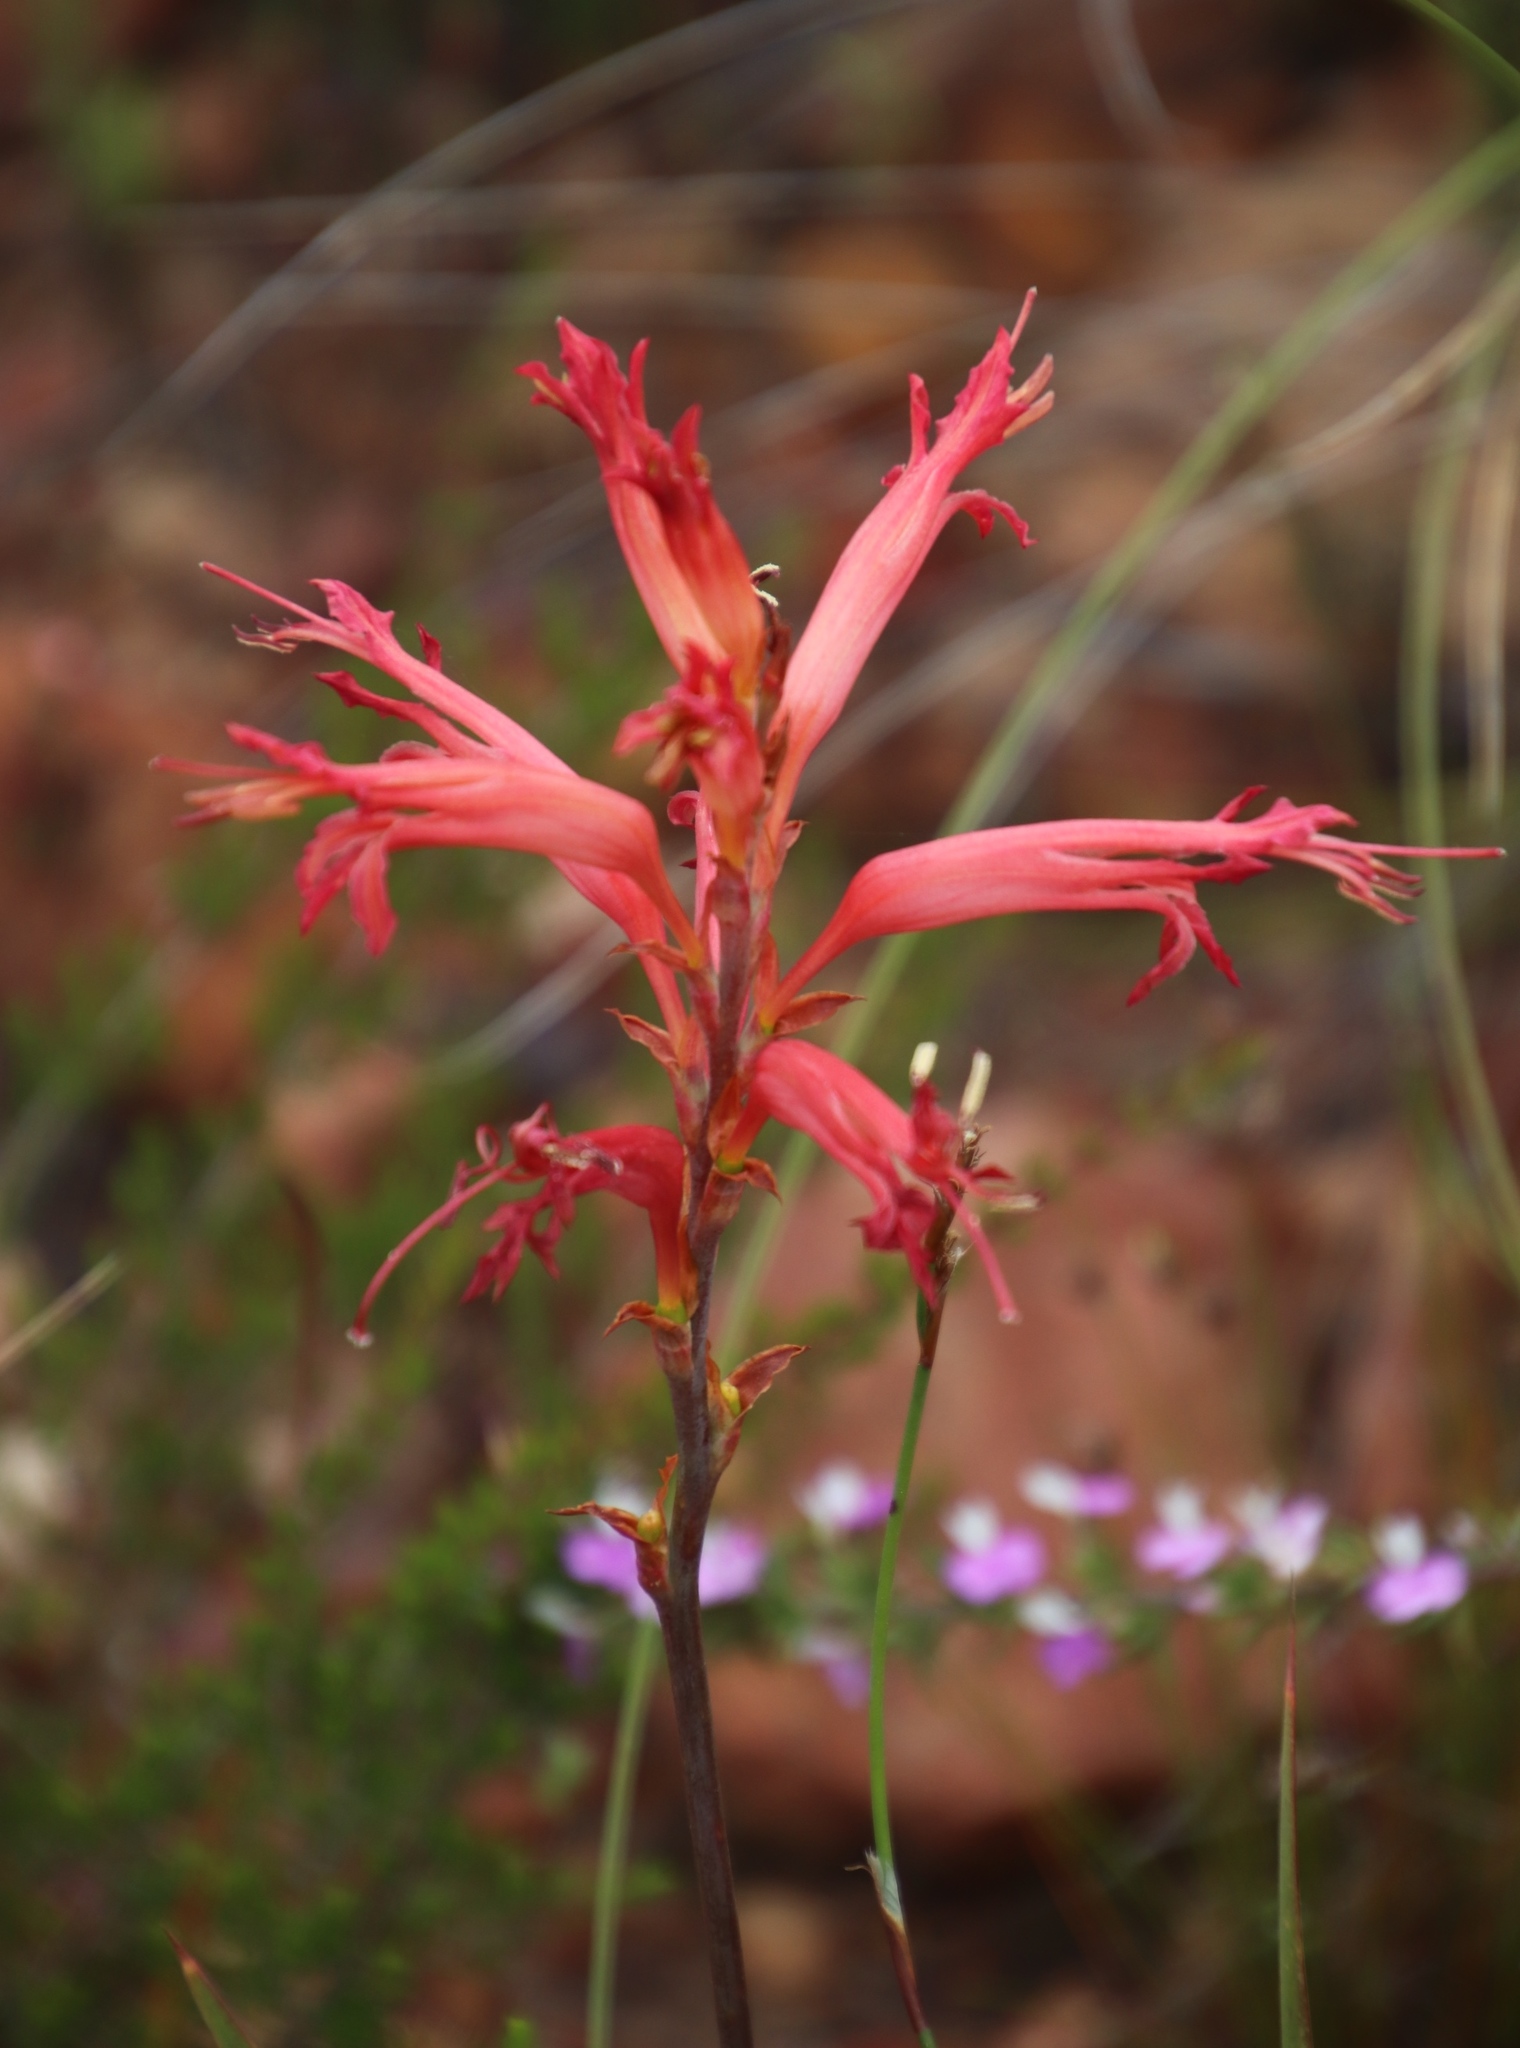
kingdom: Plantae
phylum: Tracheophyta
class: Liliopsida
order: Asparagales
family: Iridaceae
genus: Tritoniopsis
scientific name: Tritoniopsis antholyza
